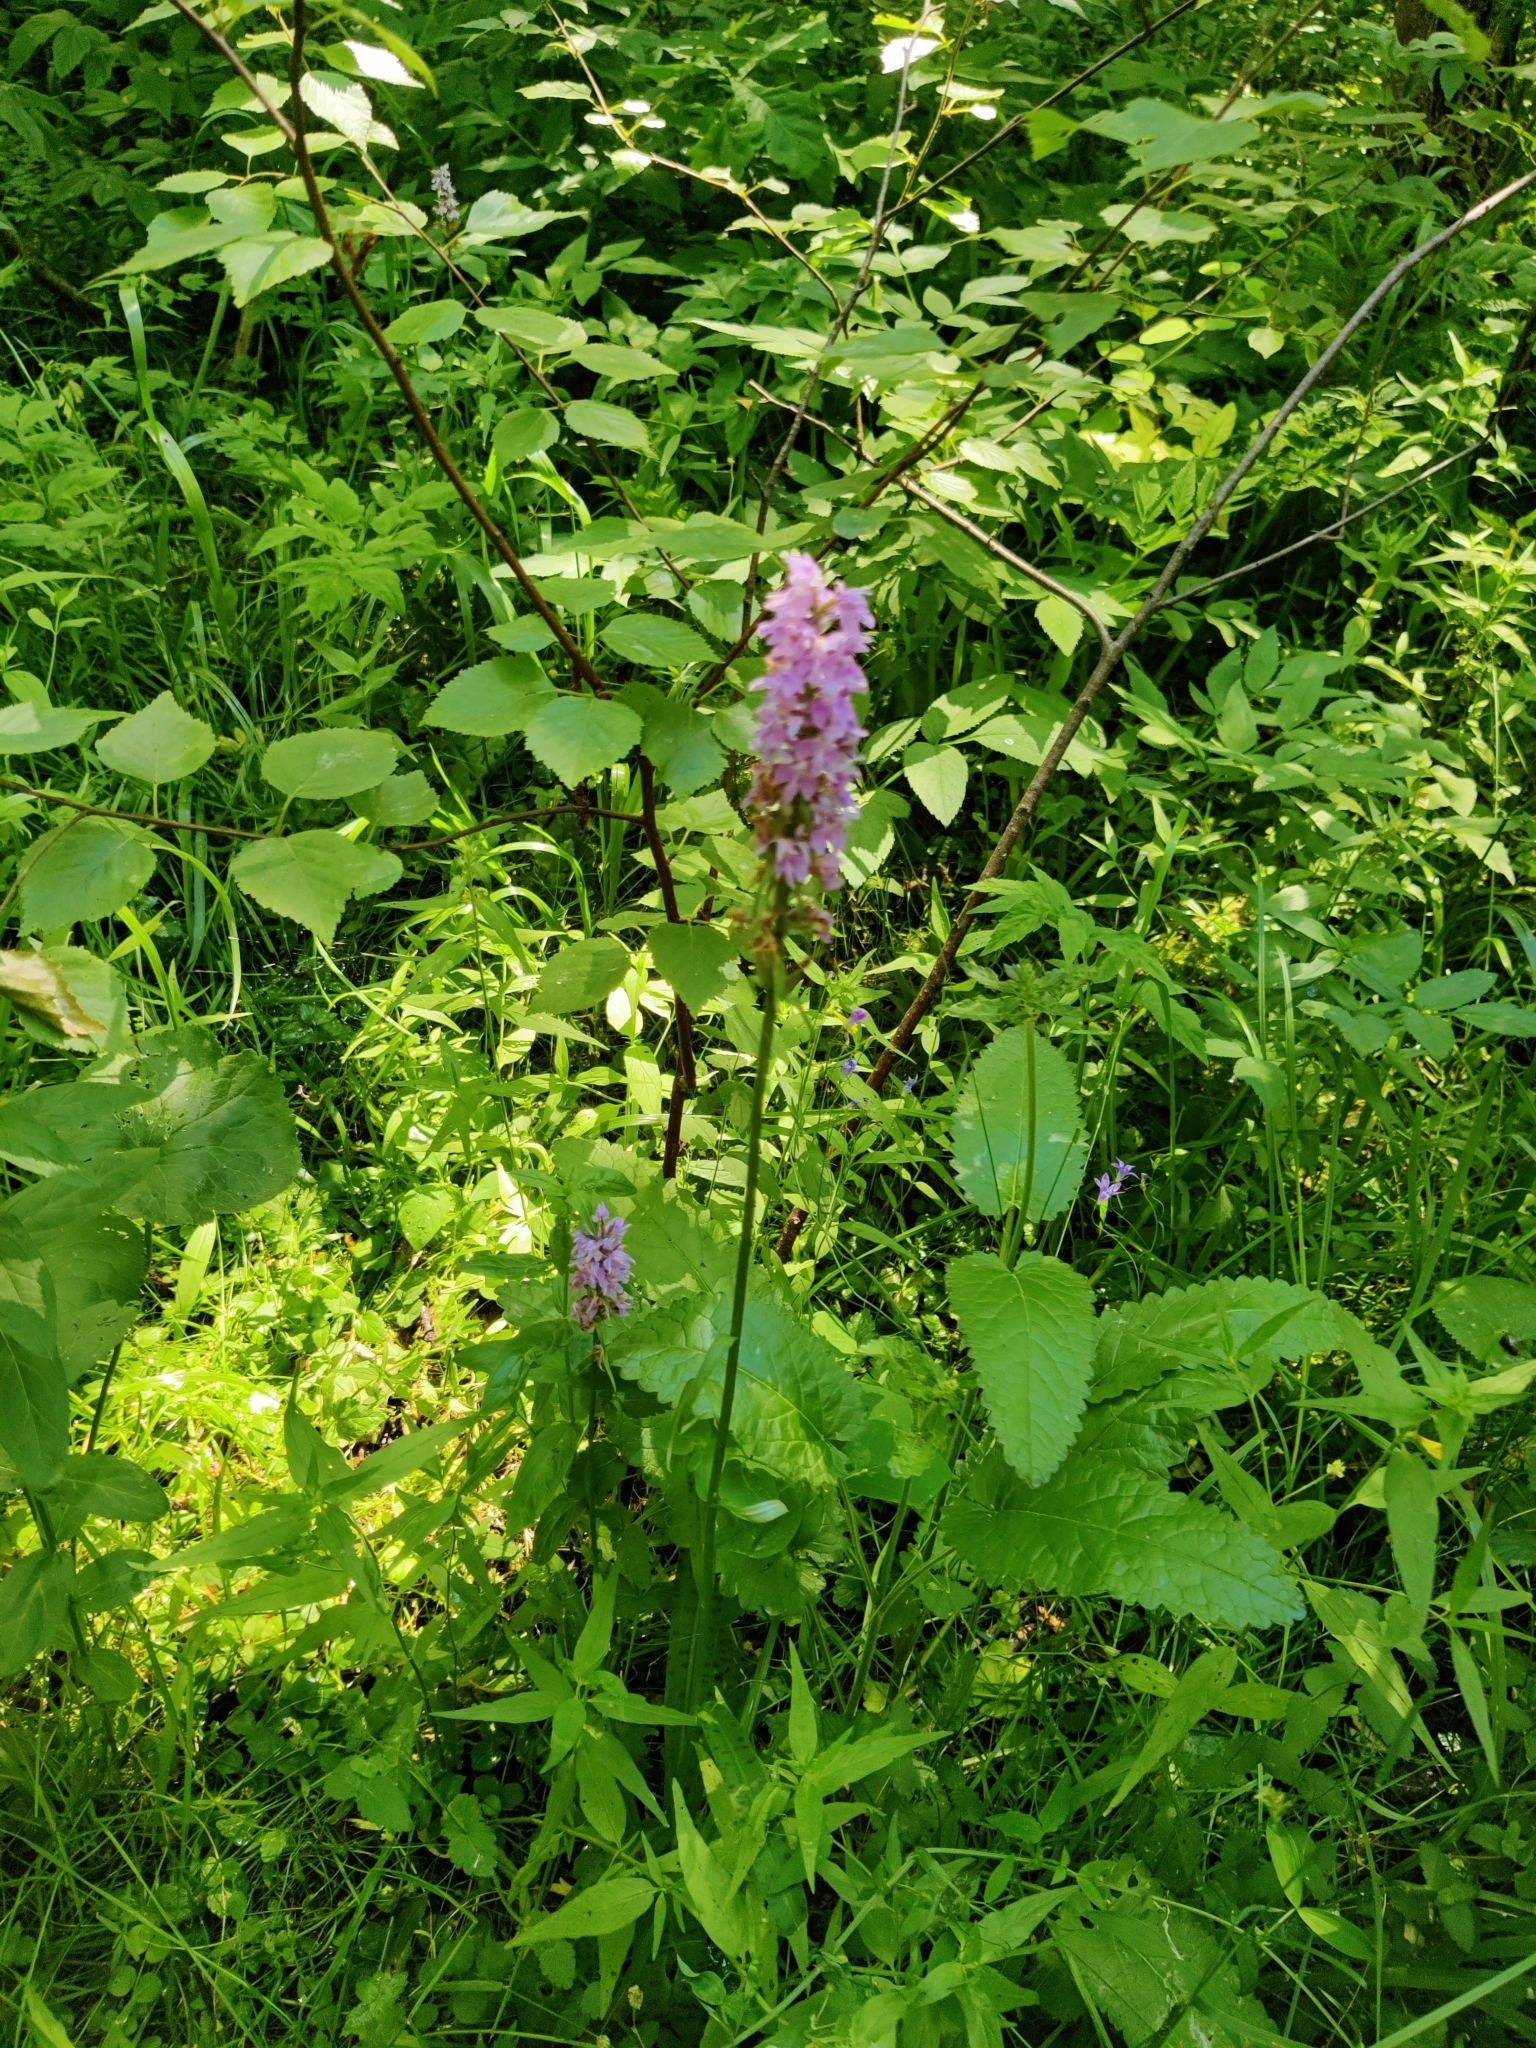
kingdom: Plantae
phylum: Tracheophyta
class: Liliopsida
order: Asparagales
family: Orchidaceae
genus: Dactylorhiza
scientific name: Dactylorhiza maculata
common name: Heath spotted-orchid
